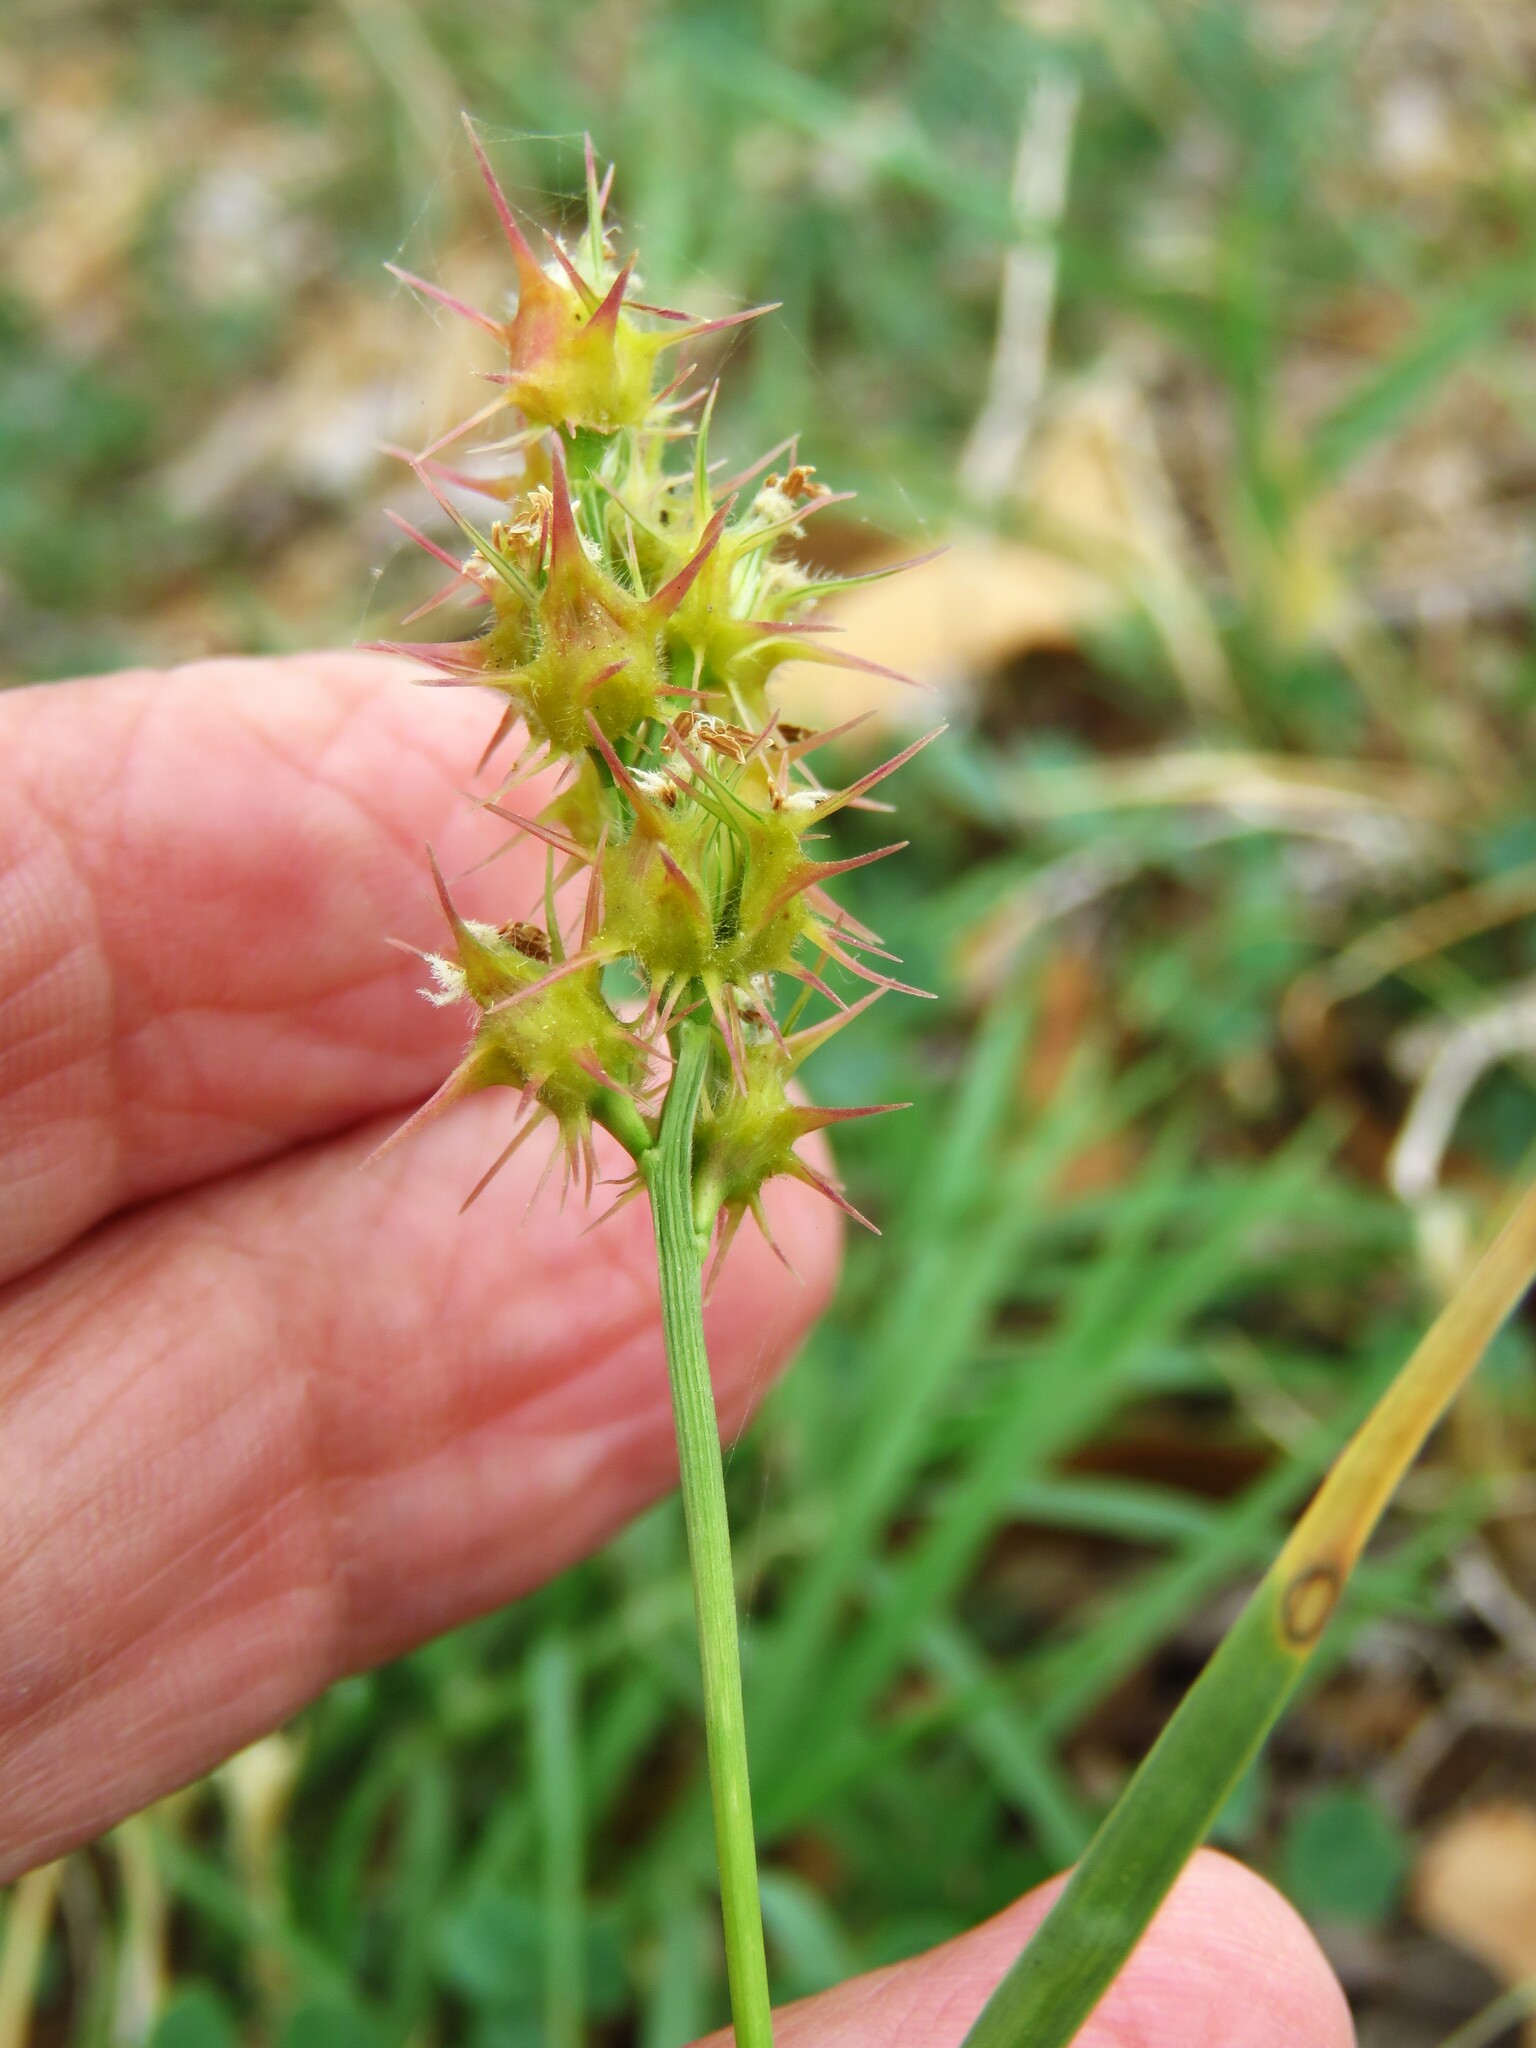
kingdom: Plantae
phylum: Tracheophyta
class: Liliopsida
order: Poales
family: Poaceae
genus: Cenchrus
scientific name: Cenchrus spinifex
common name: Coast sandbur
